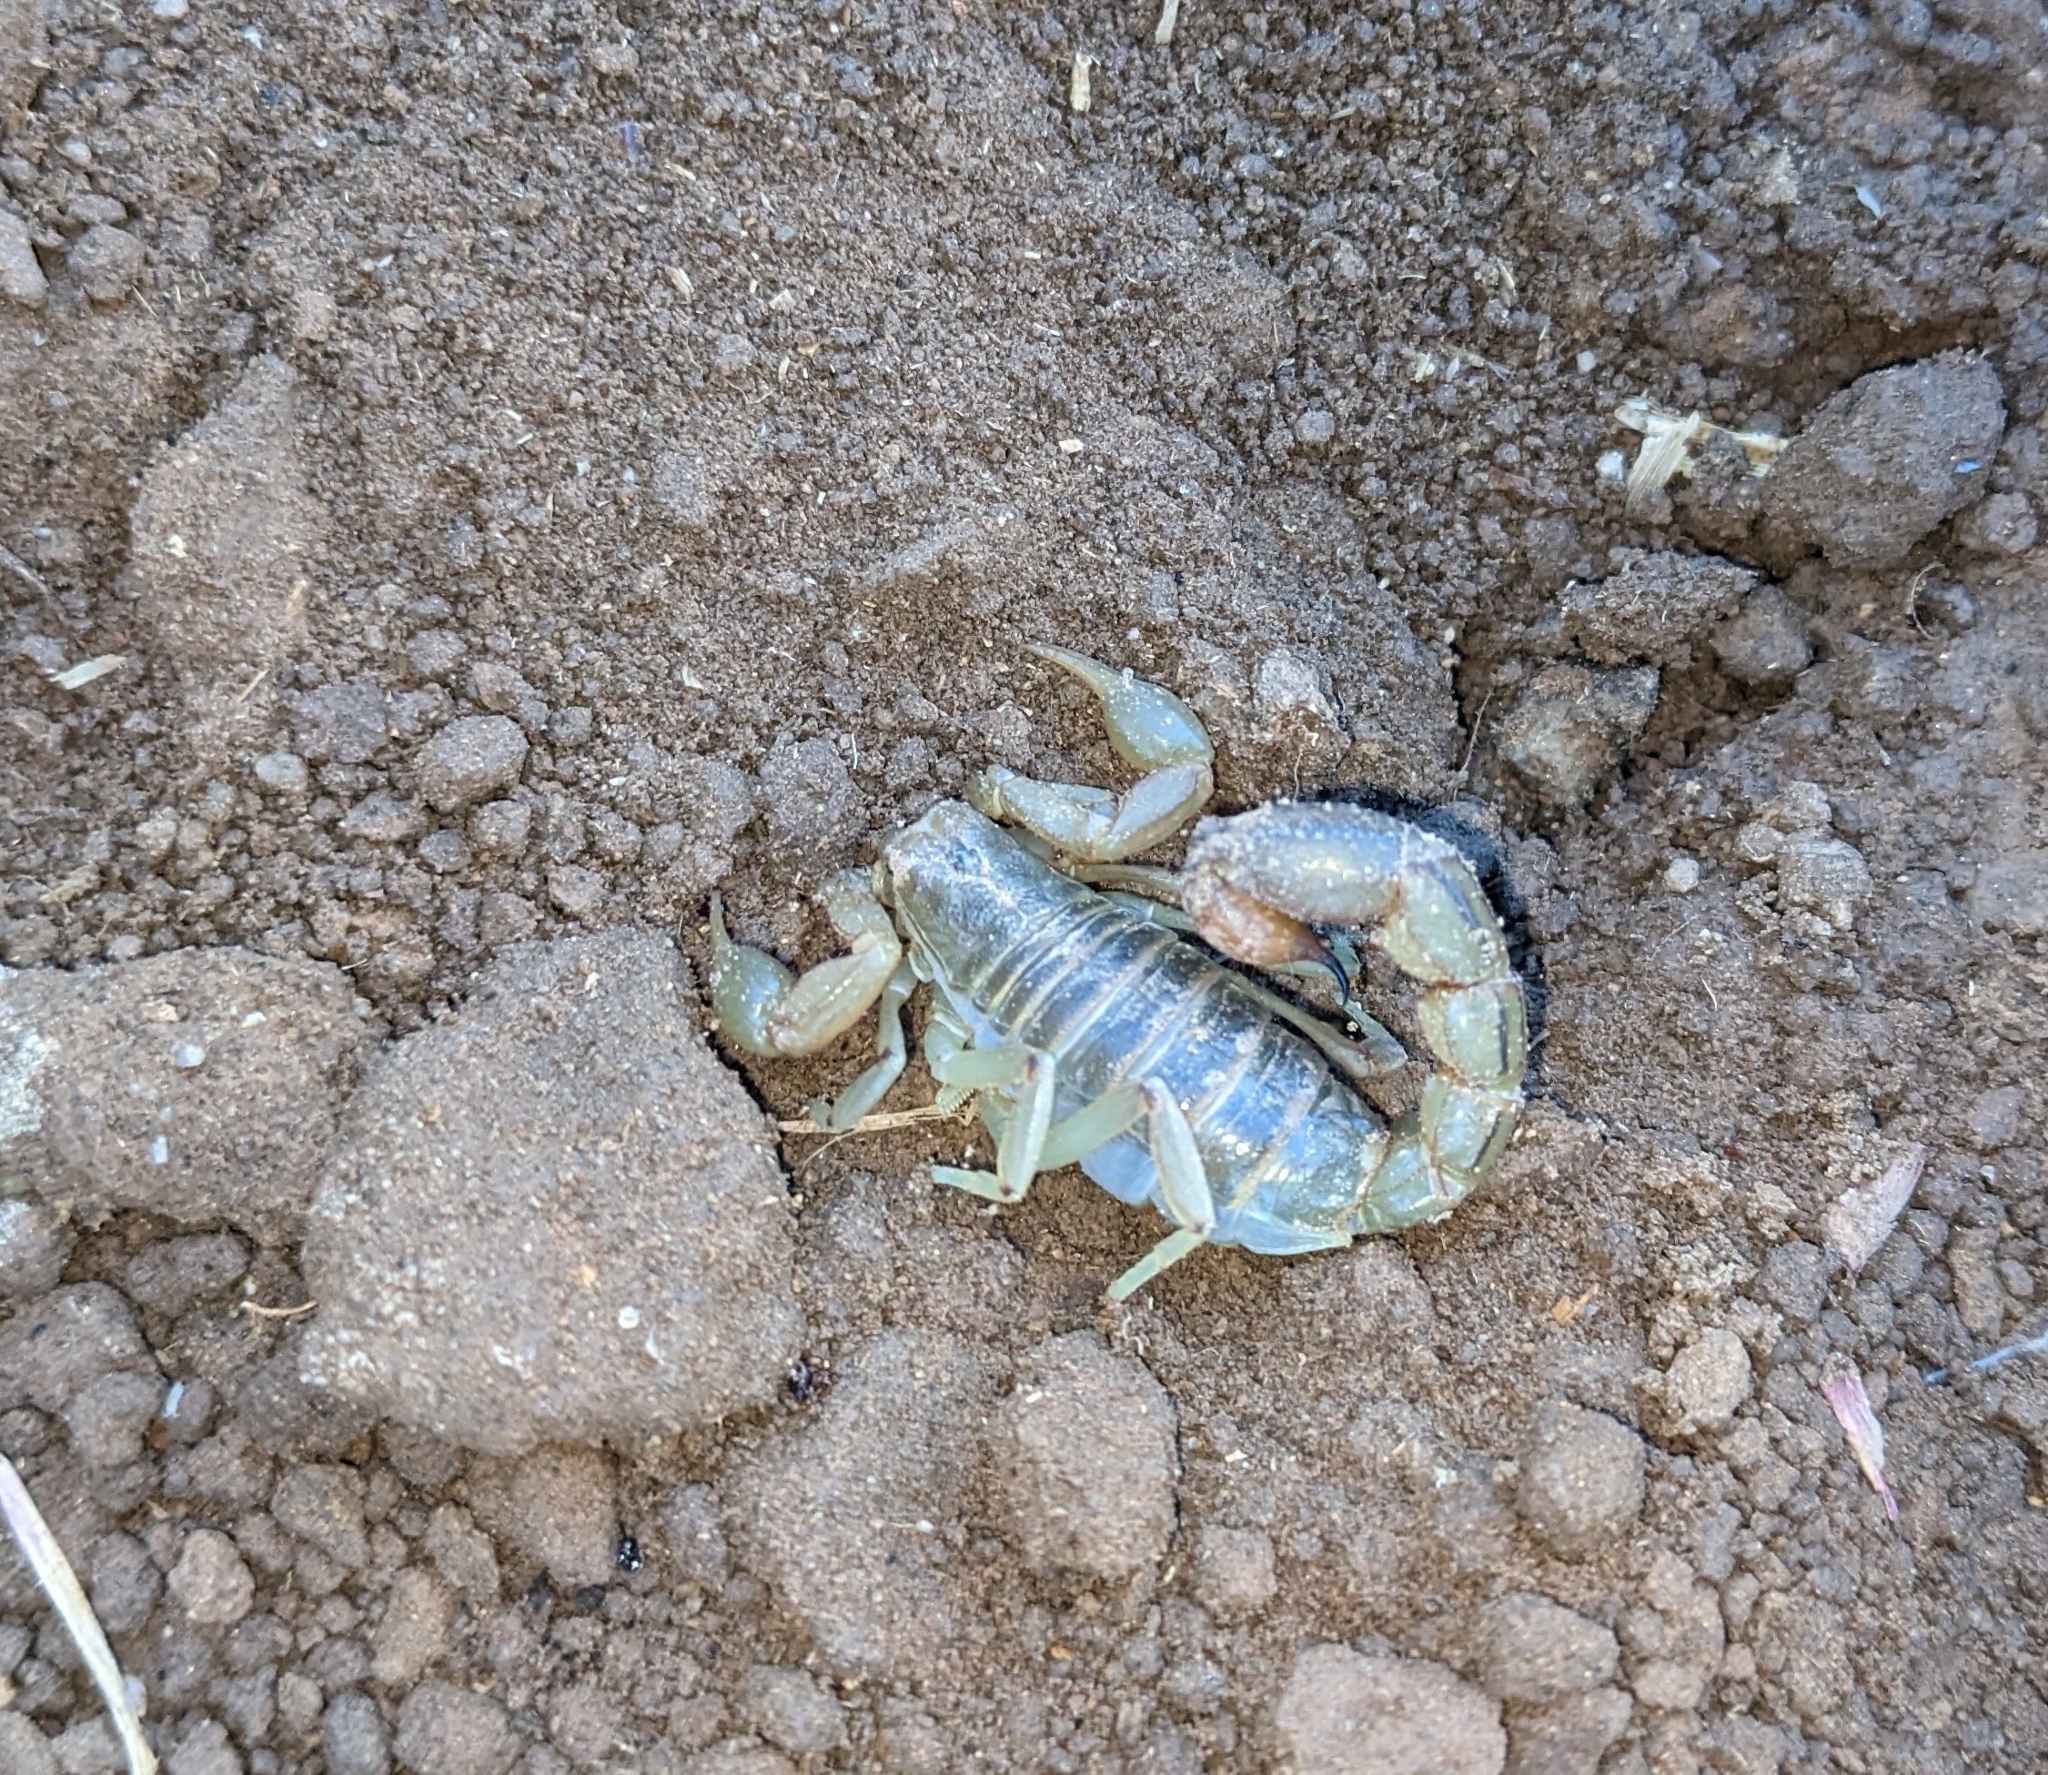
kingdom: Animalia
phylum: Arthropoda
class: Arachnida
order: Scorpiones
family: Vaejovidae
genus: Paravaejovis
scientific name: Paravaejovis spinigerus
